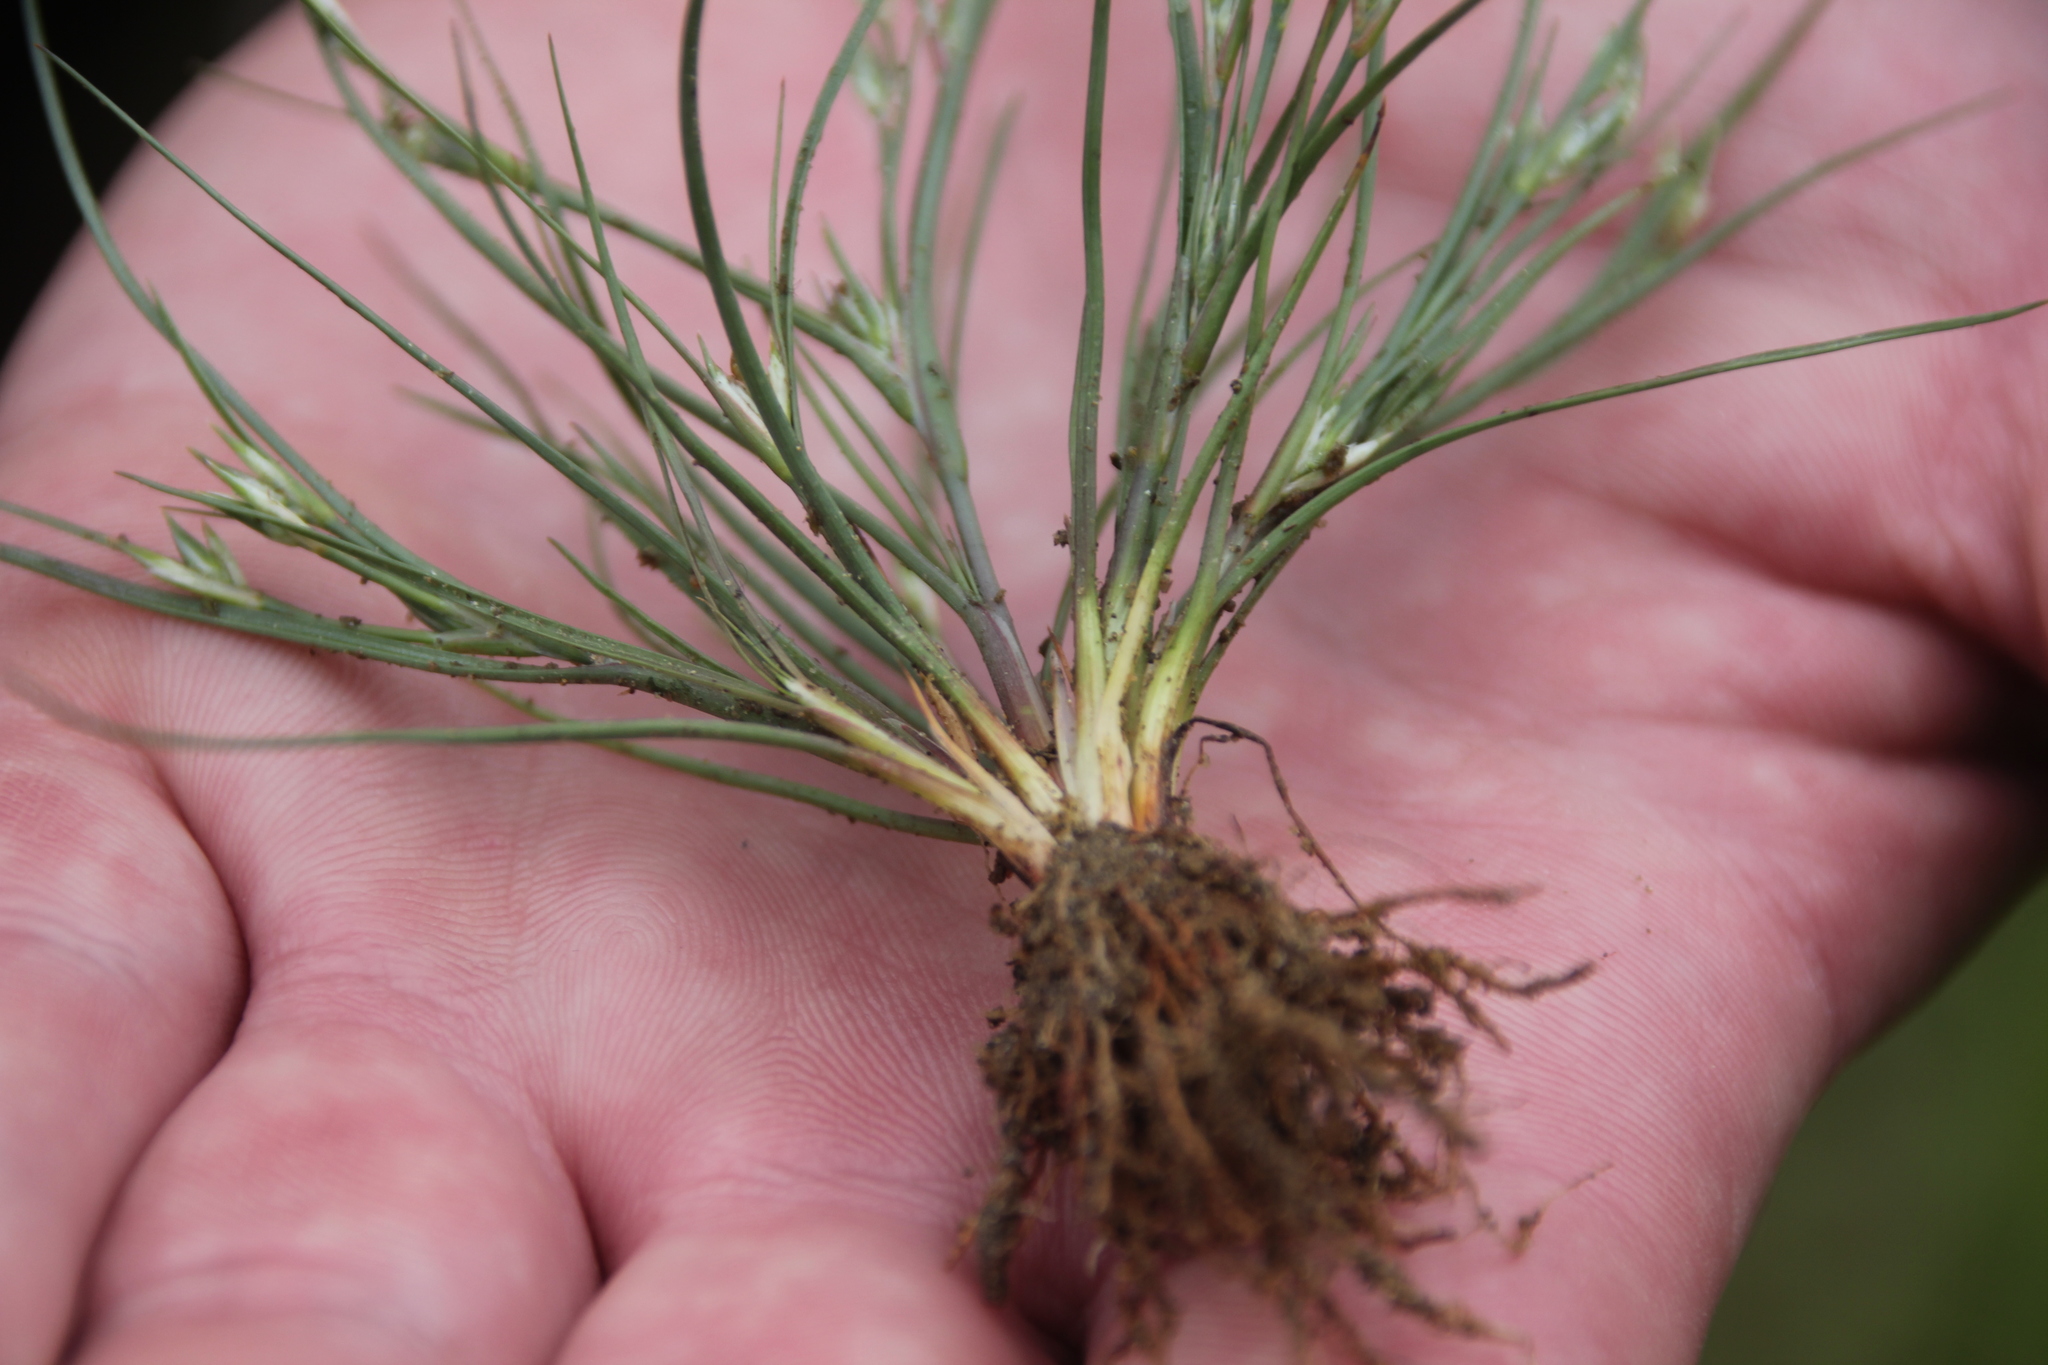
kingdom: Plantae
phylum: Tracheophyta
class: Liliopsida
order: Poales
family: Juncaceae
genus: Juncus
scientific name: Juncus bufonius
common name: Toad rush
